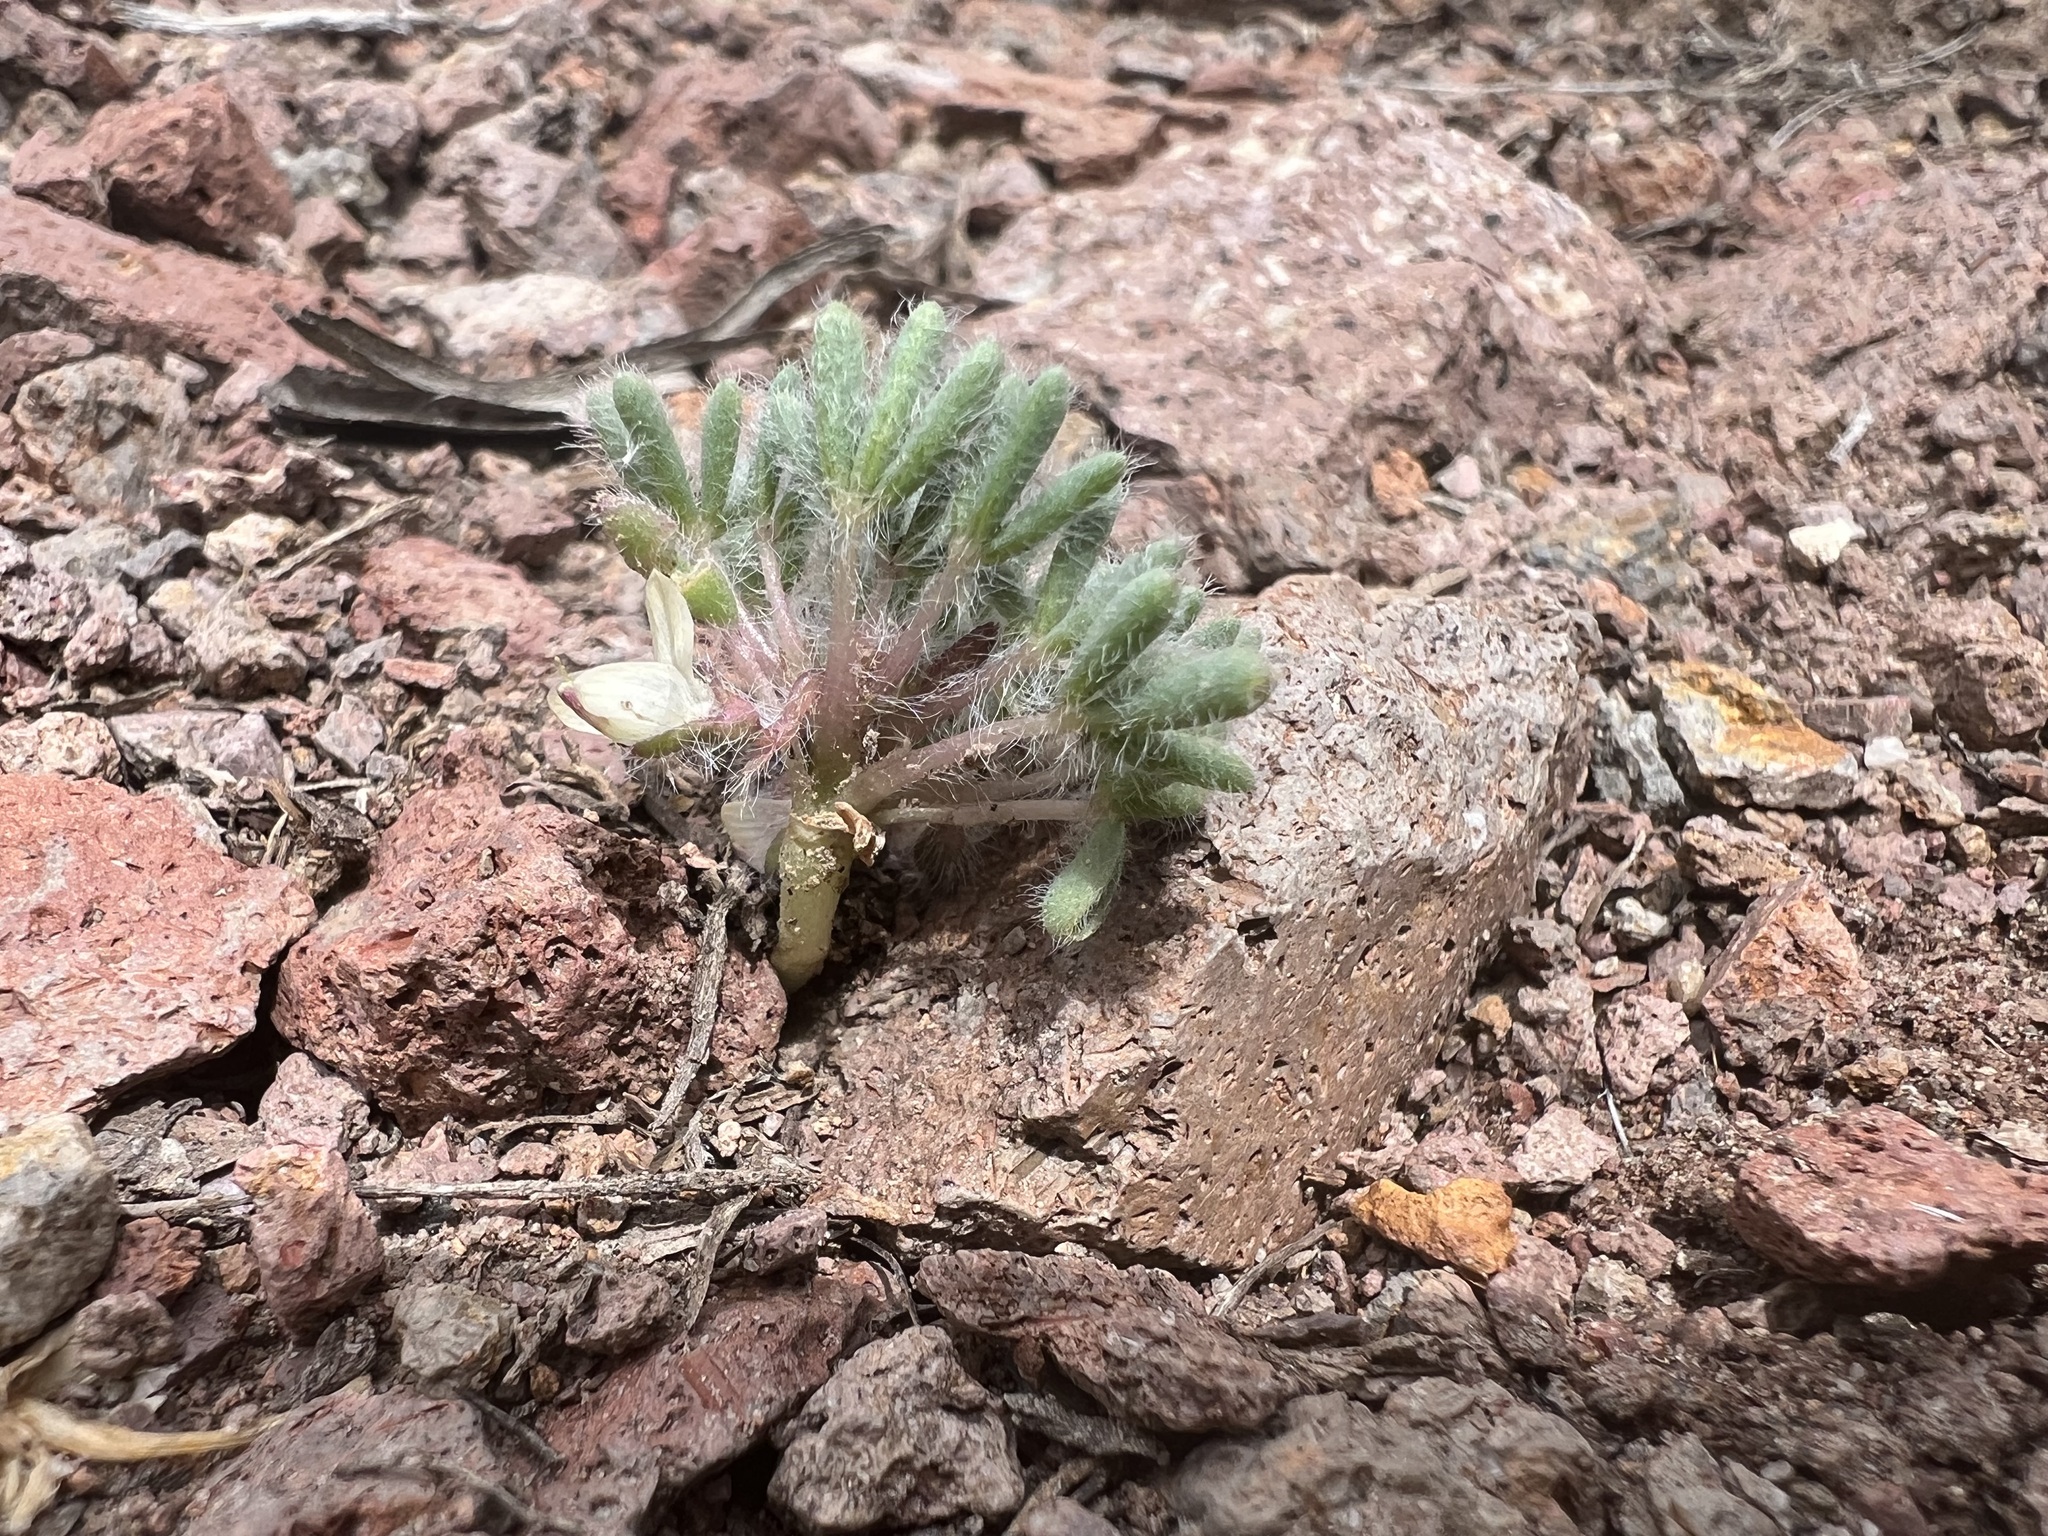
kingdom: Plantae
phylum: Tracheophyta
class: Magnoliopsida
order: Fabales
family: Fabaceae
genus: Lupinus
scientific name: Lupinus uncialis
